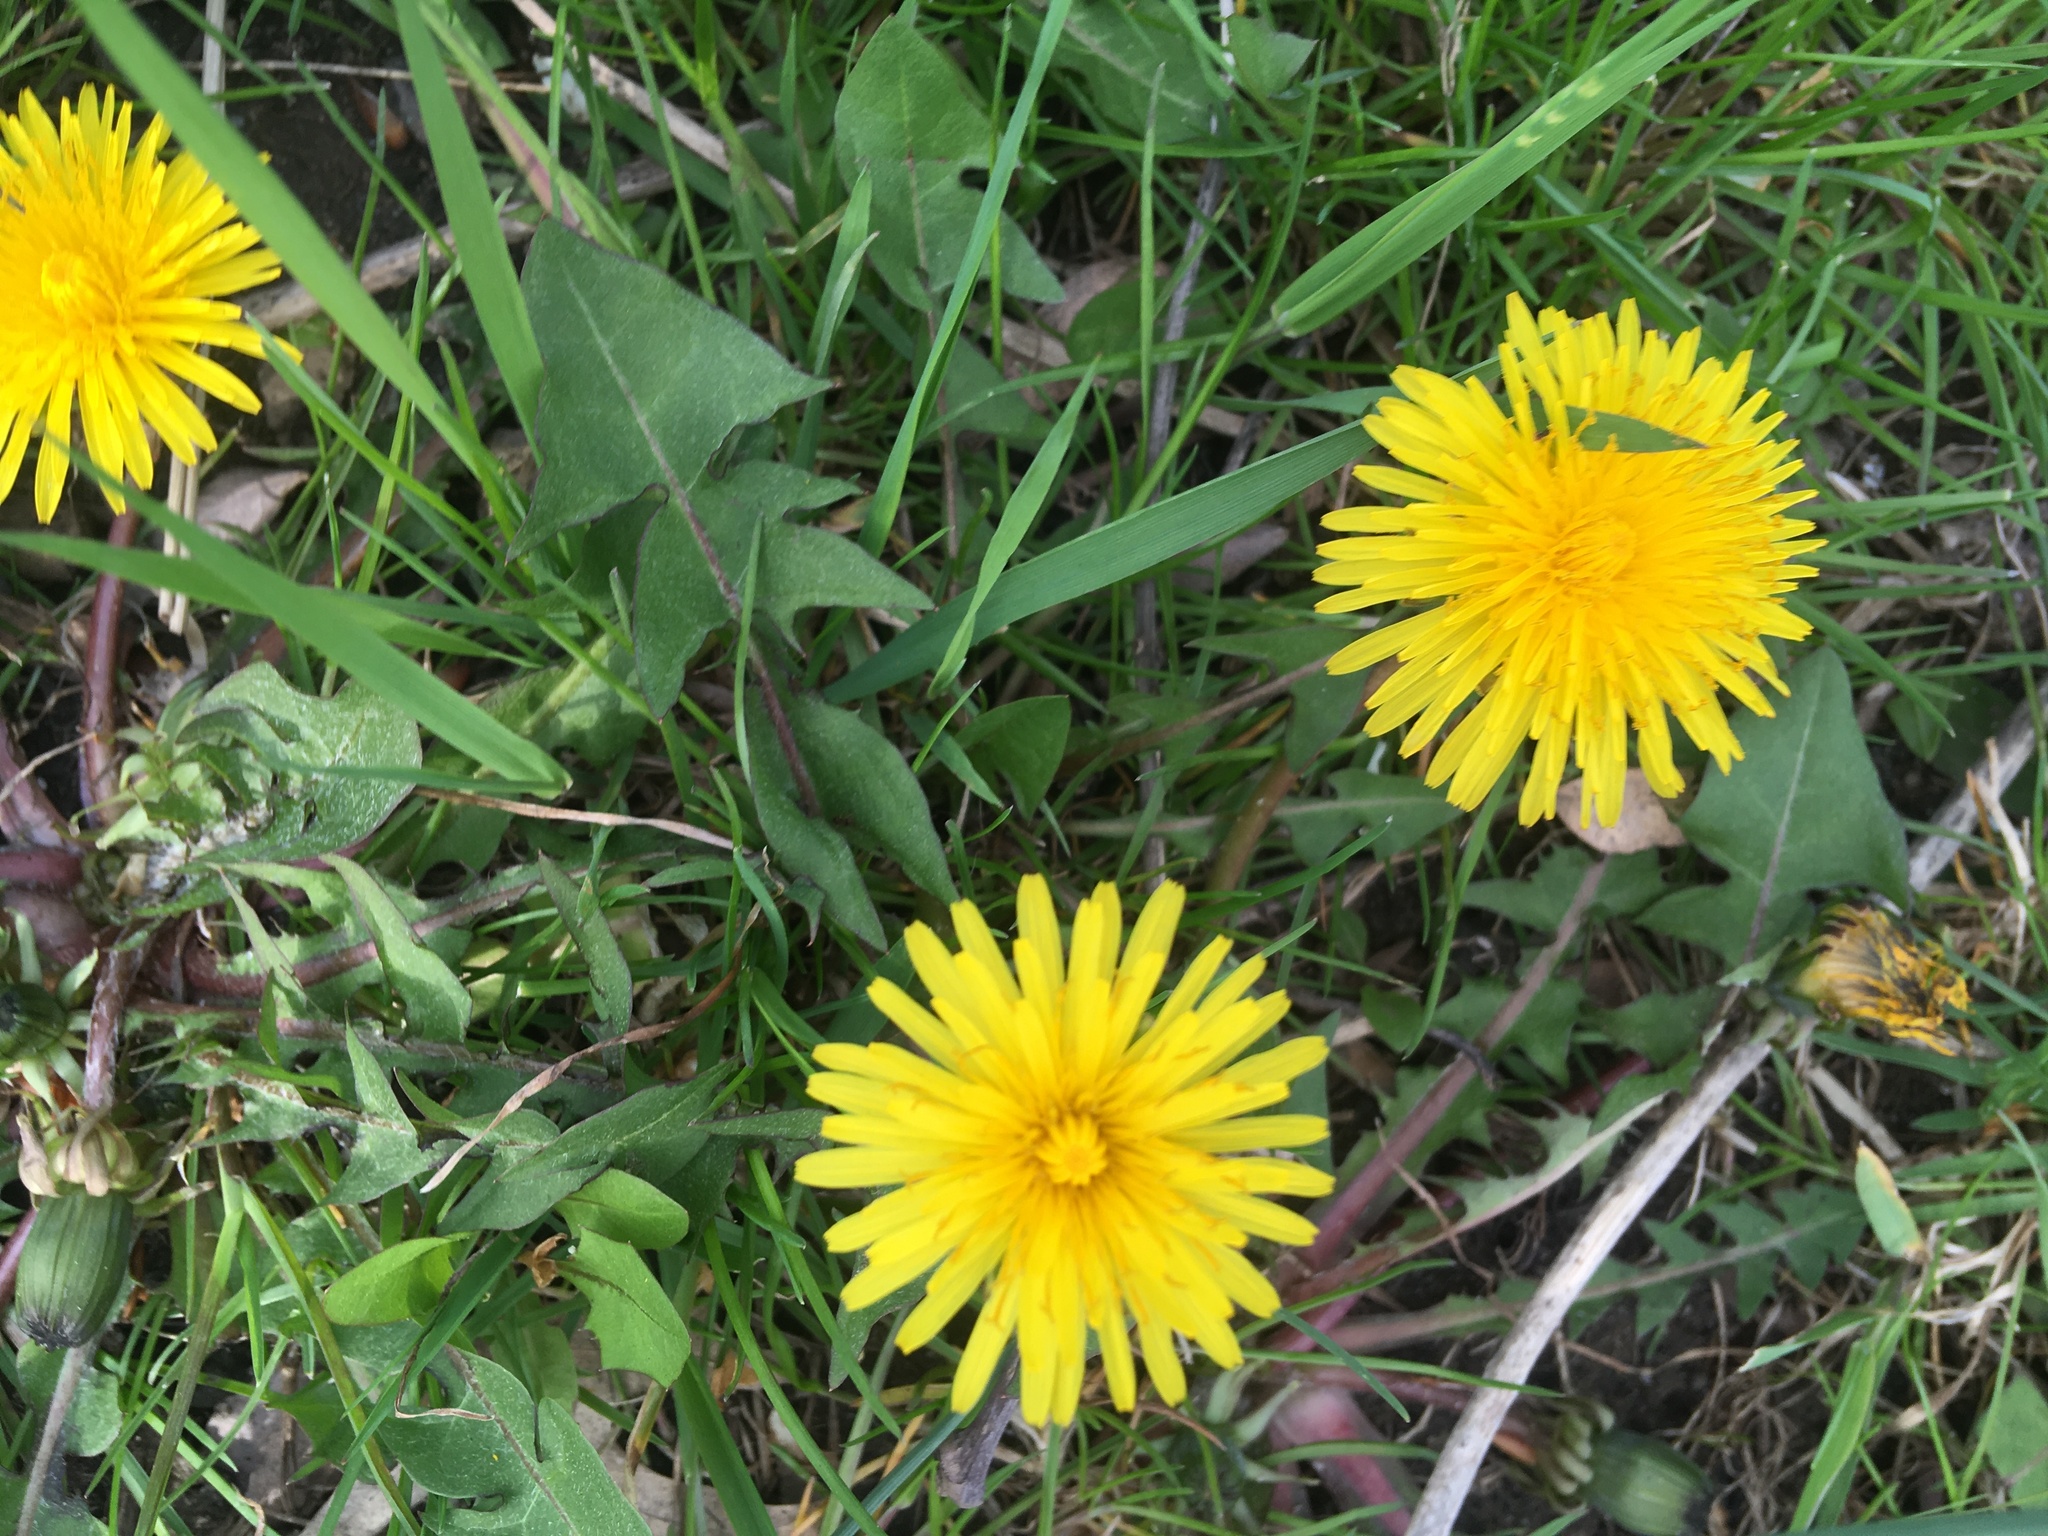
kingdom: Plantae
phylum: Tracheophyta
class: Magnoliopsida
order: Asterales
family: Asteraceae
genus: Taraxacum
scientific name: Taraxacum officinale
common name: Common dandelion
